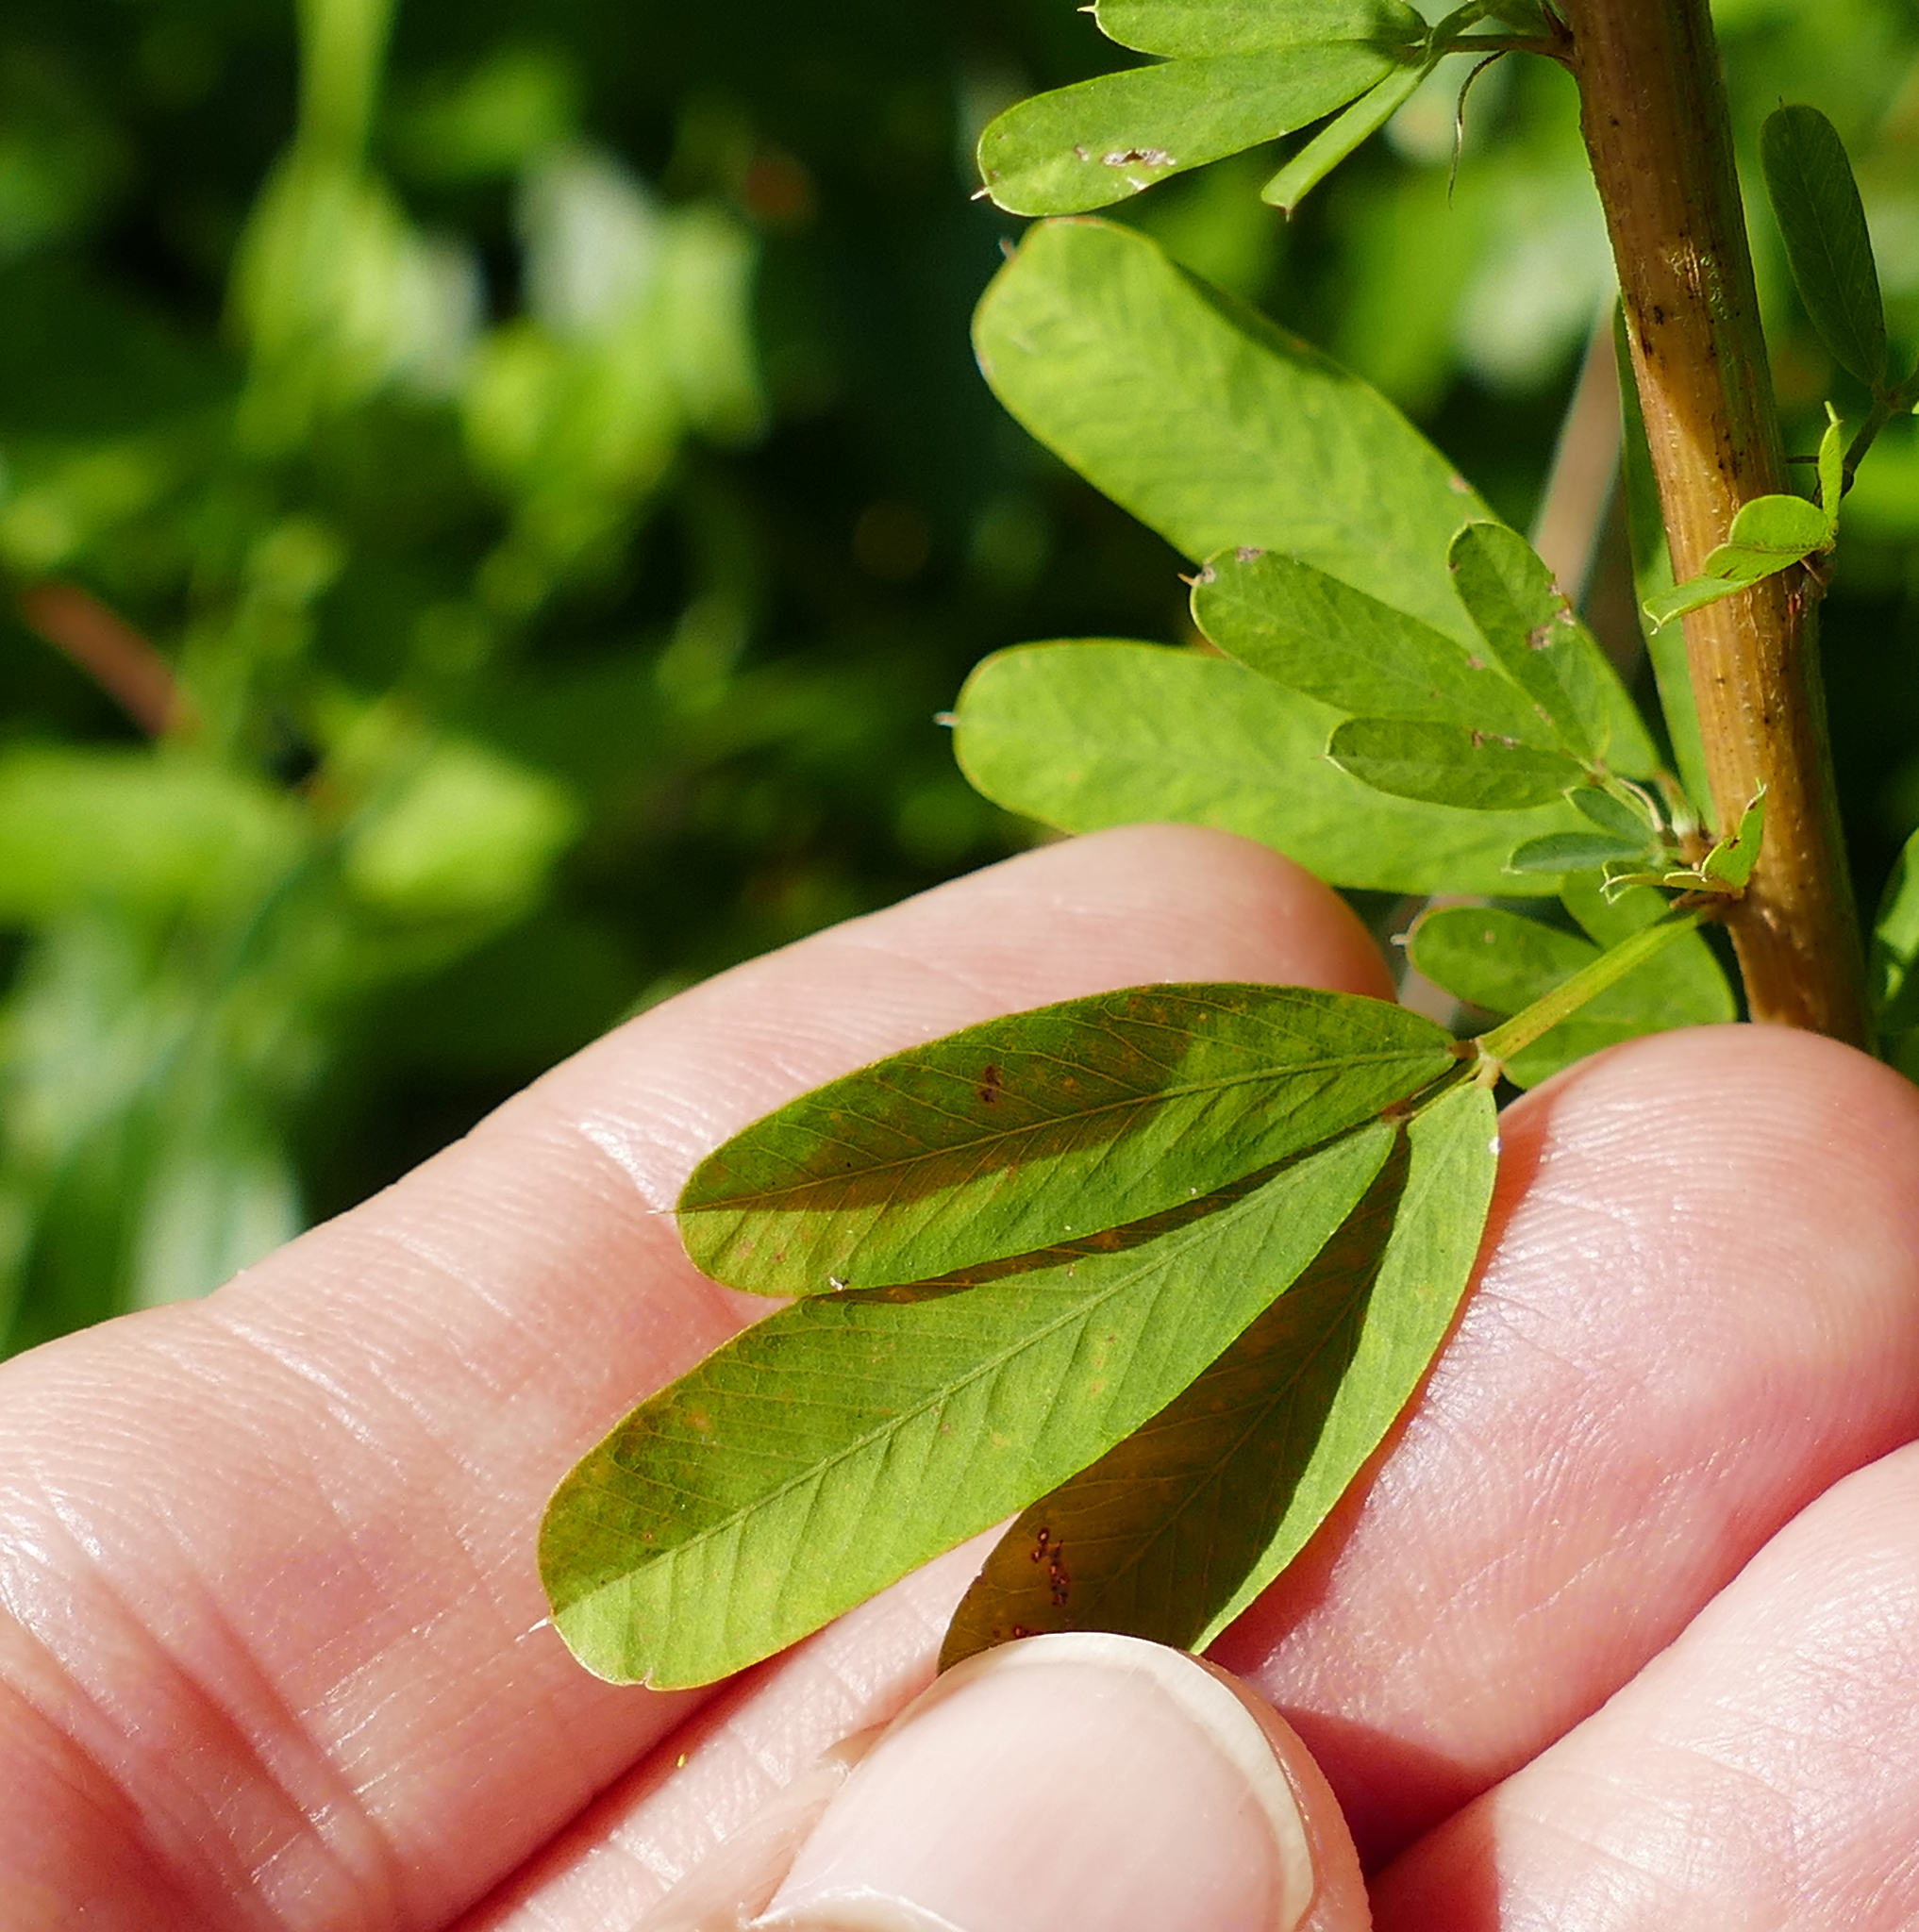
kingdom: Plantae
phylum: Tracheophyta
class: Magnoliopsida
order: Fabales
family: Fabaceae
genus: Lespedeza
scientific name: Lespedeza cuneata
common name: Chinese bush-clover
